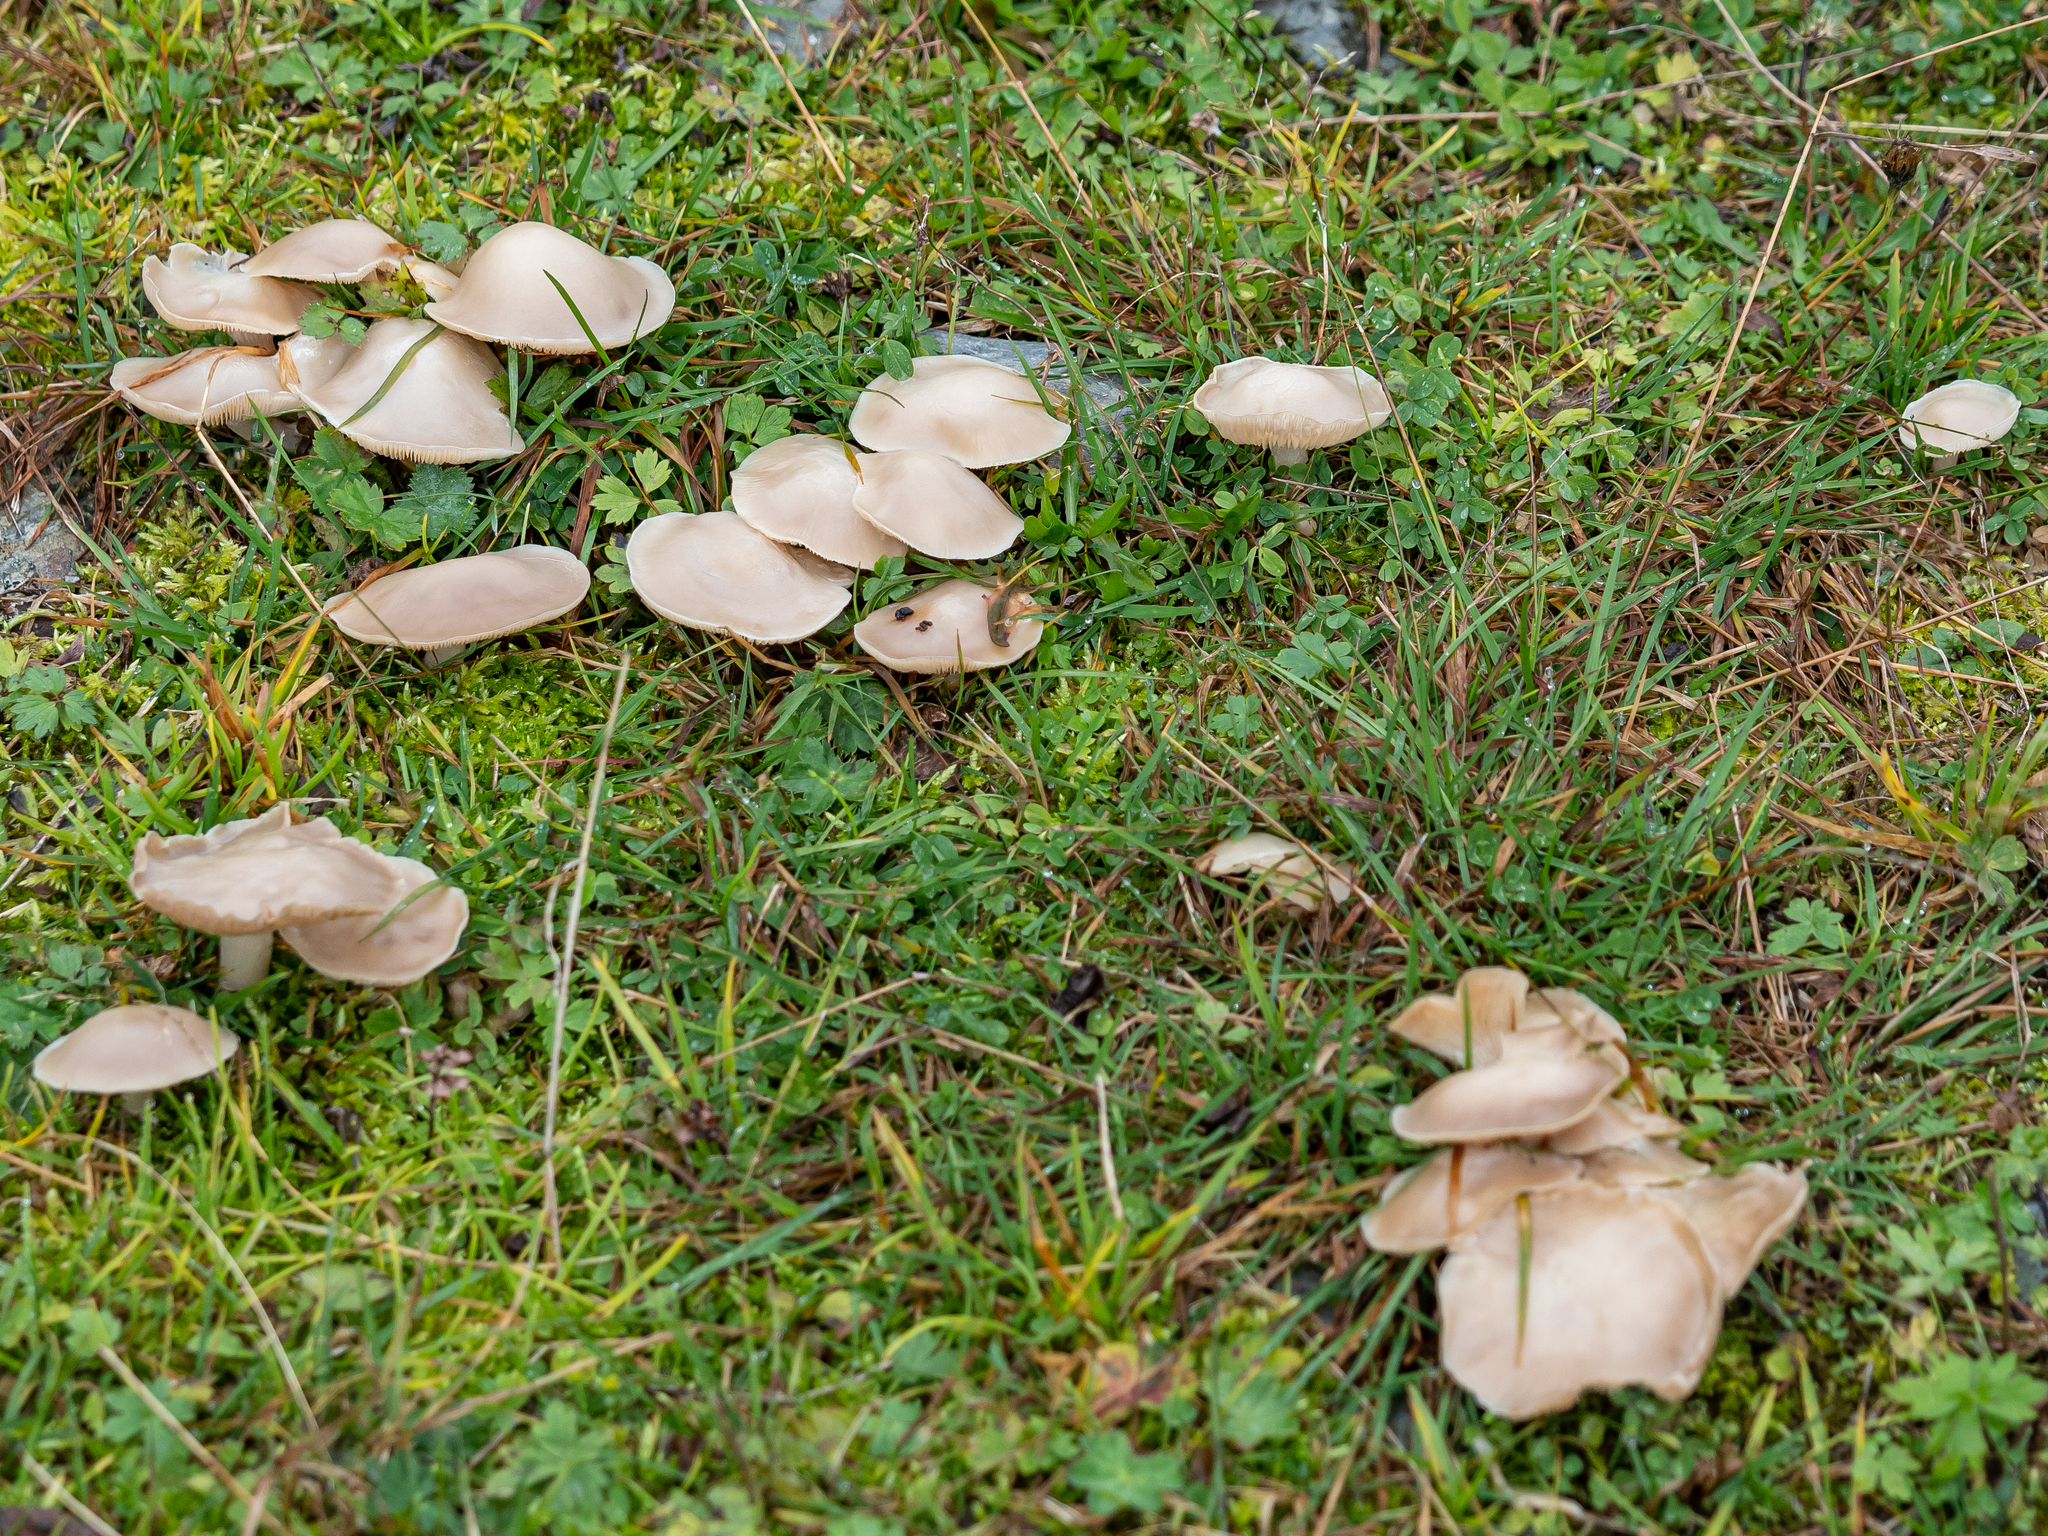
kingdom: Fungi
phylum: Basidiomycota
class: Agaricomycetes
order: Agaricales
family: Tricholomataceae
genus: Melanoleuca
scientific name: Melanoleuca strictipes
